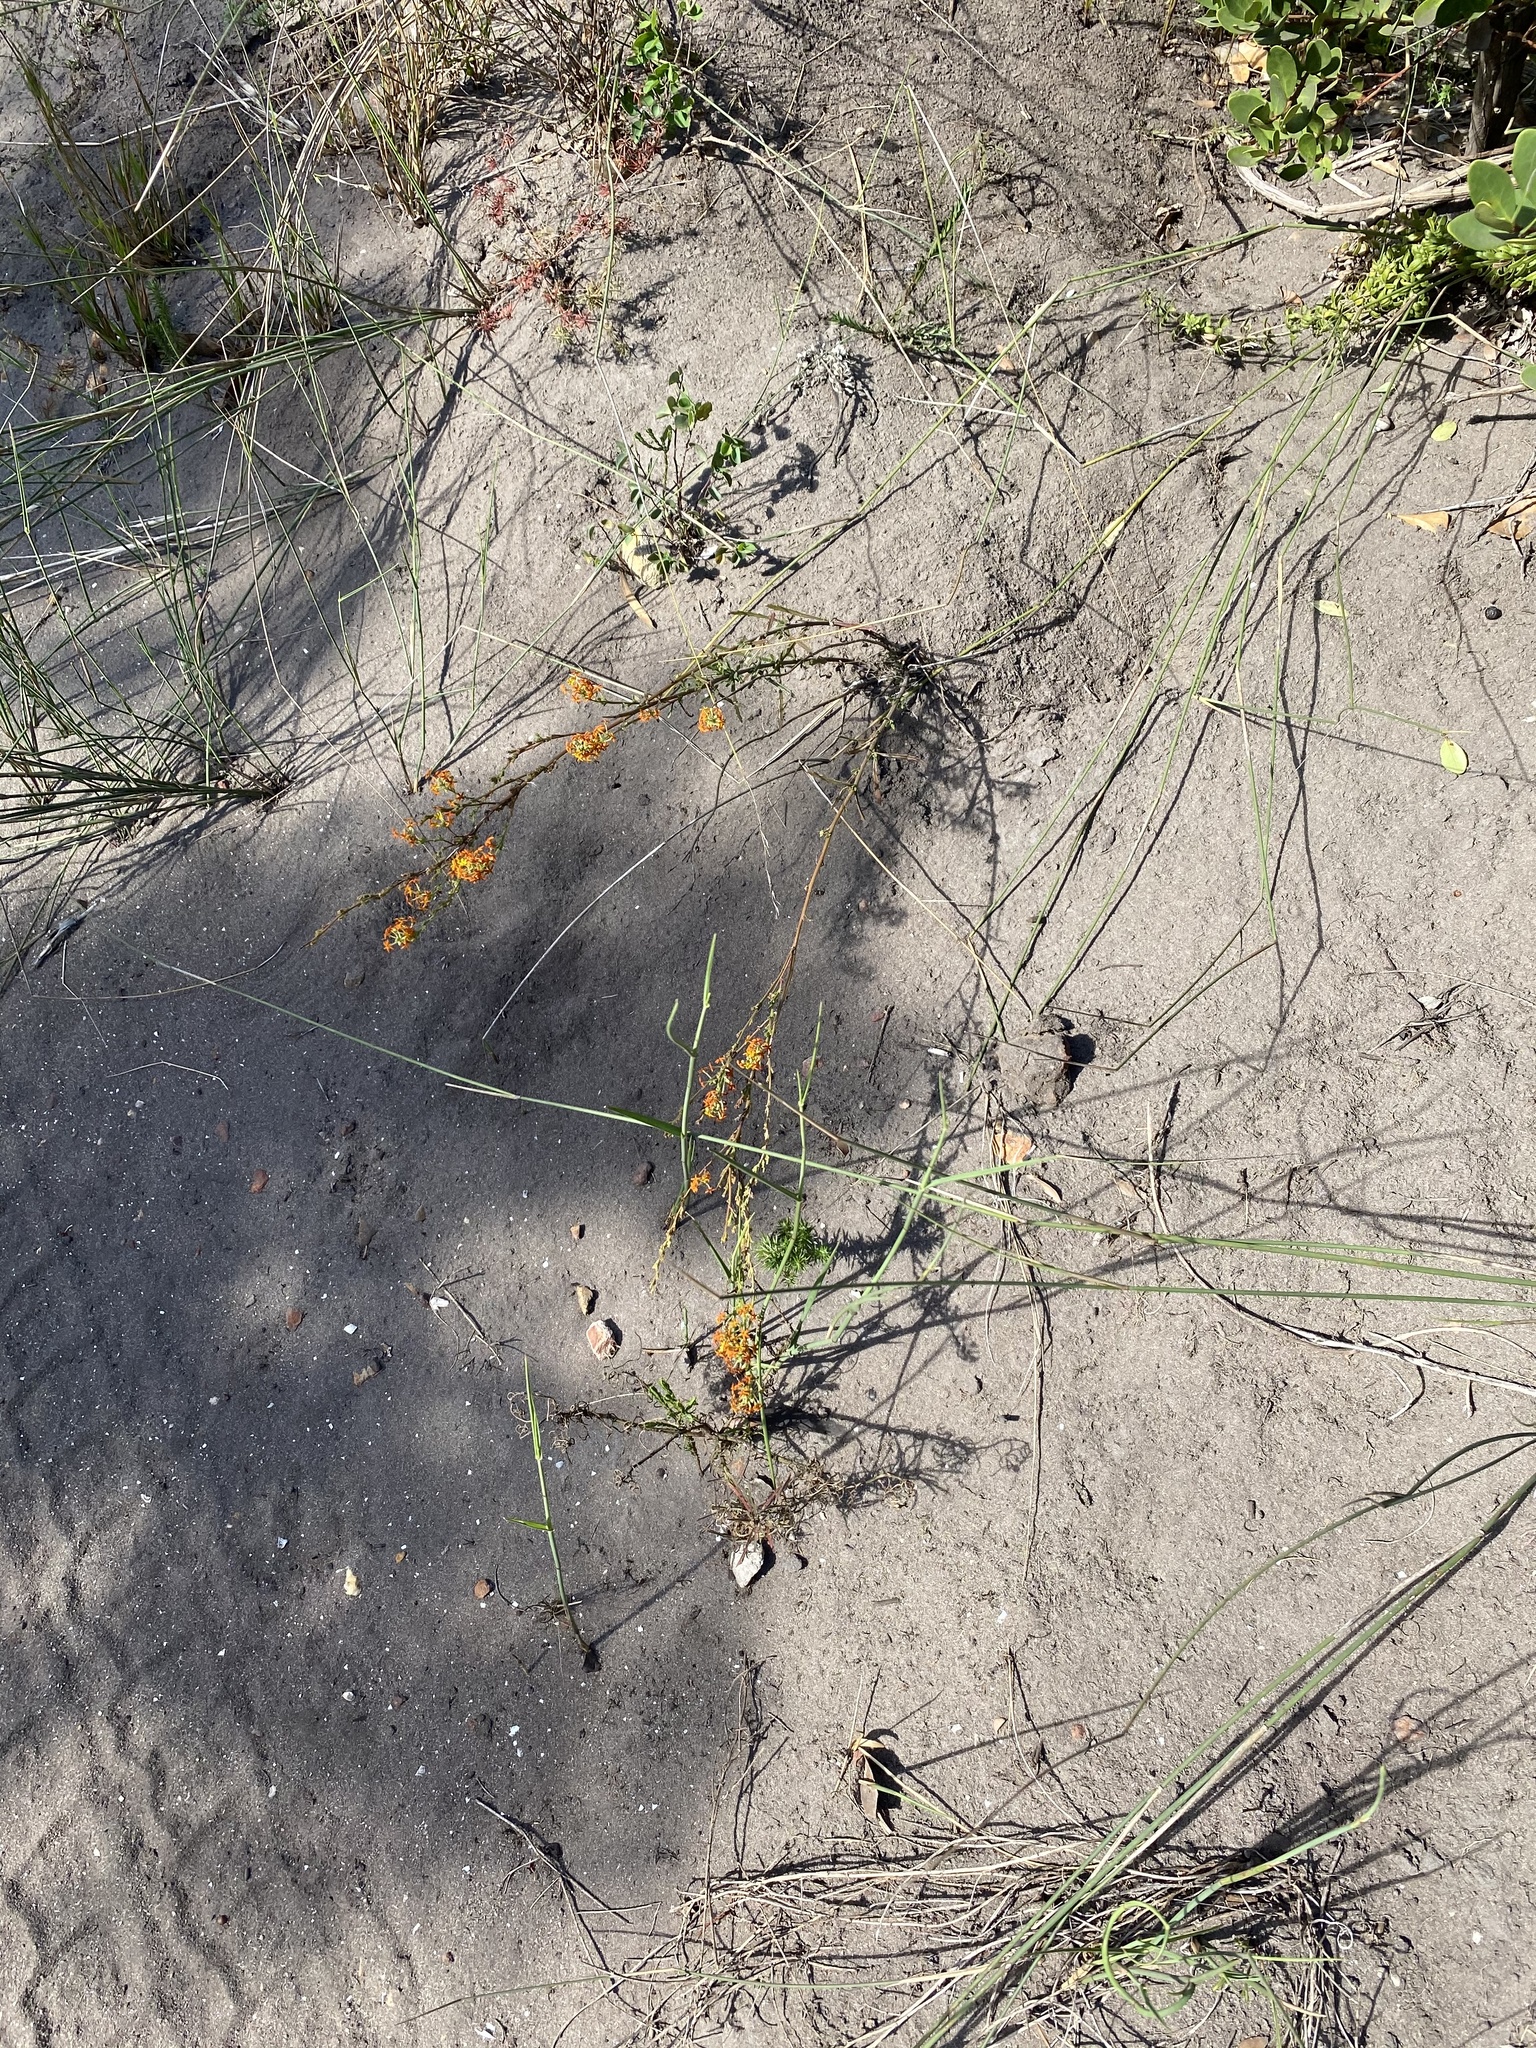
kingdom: Plantae
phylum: Tracheophyta
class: Magnoliopsida
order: Lamiales
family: Scrophulariaceae
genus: Manulea
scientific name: Manulea rubra
